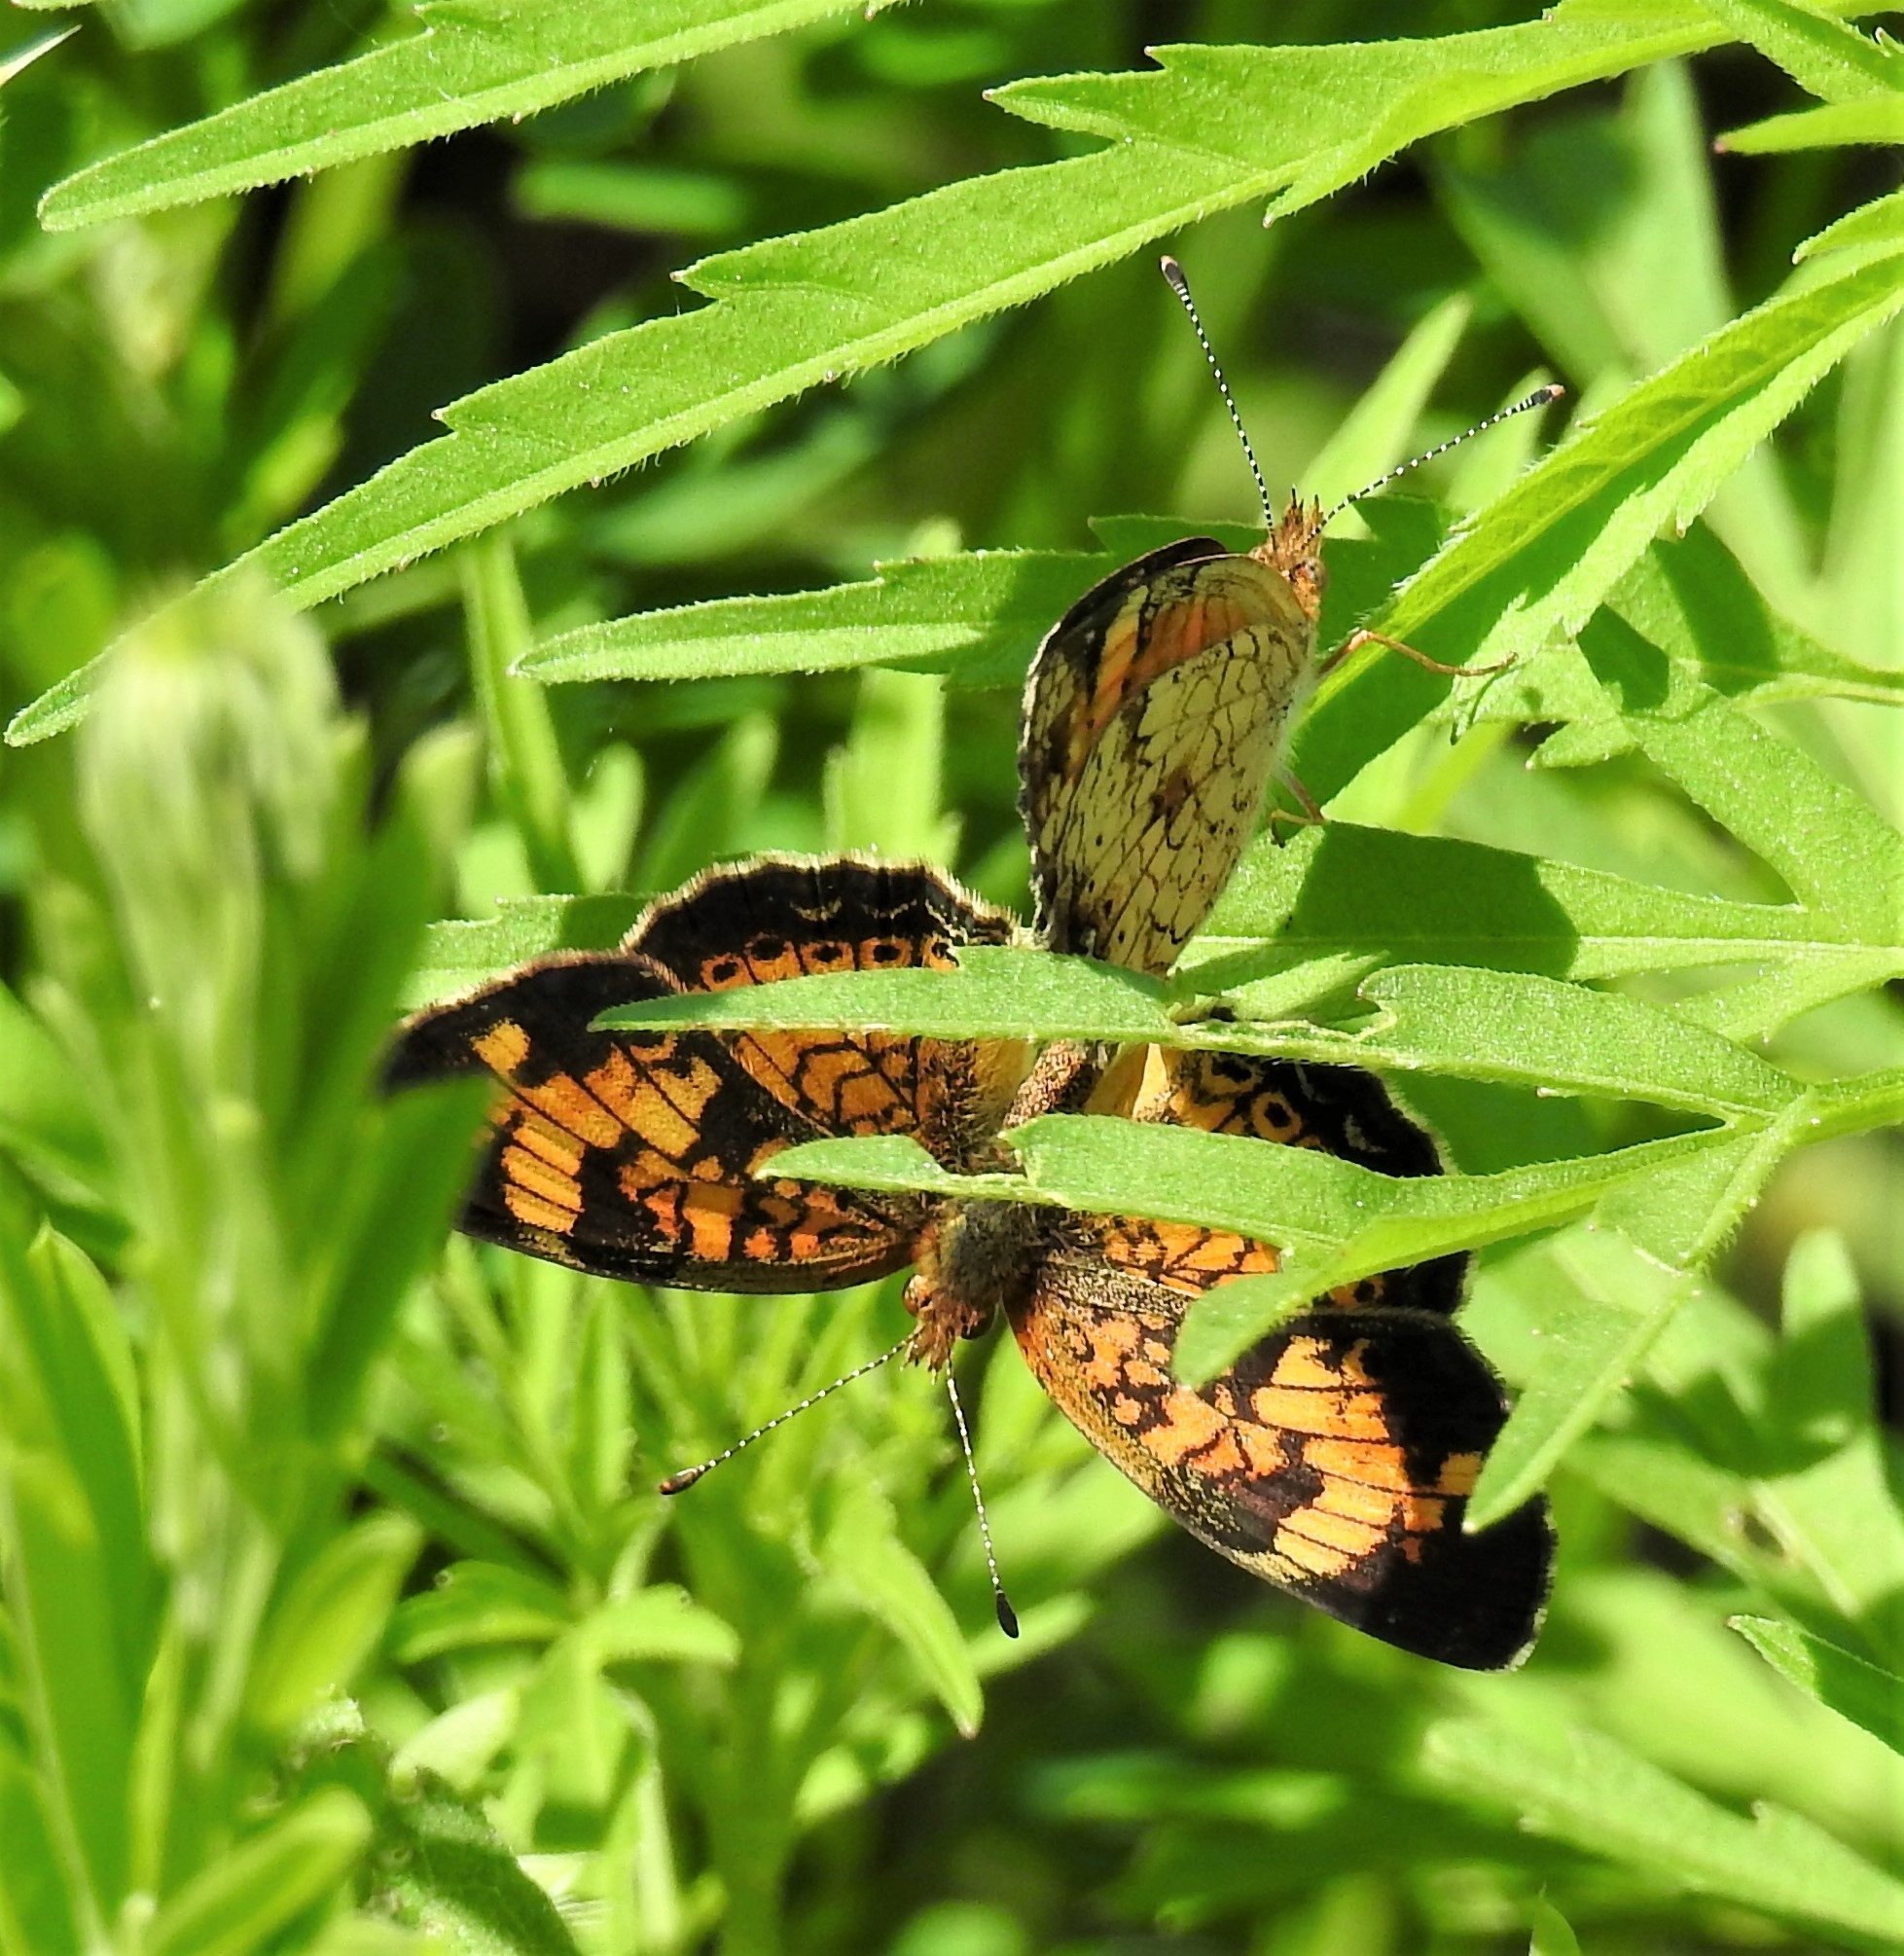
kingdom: Animalia
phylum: Arthropoda
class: Insecta
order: Lepidoptera
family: Nymphalidae
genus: Phyciodes
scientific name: Phyciodes tharos
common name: Pearl crescent
